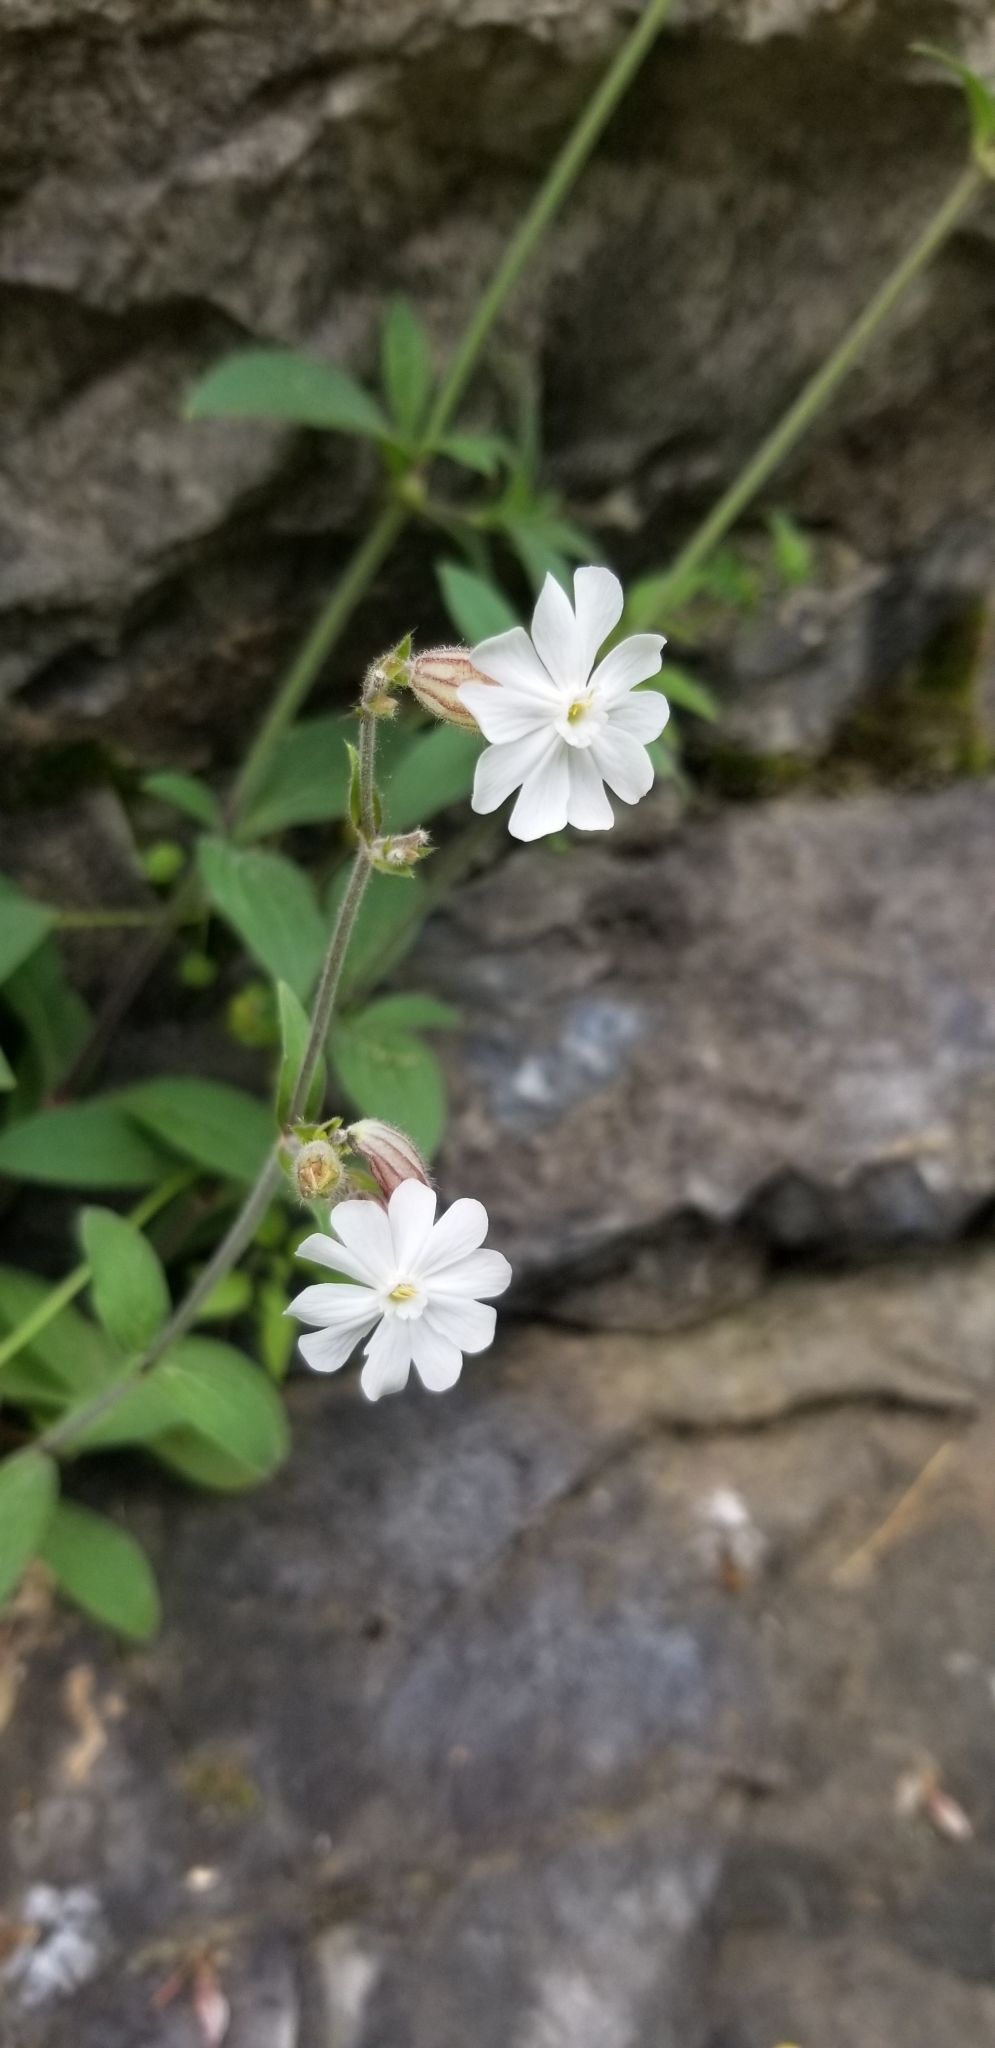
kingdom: Plantae
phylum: Tracheophyta
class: Magnoliopsida
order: Caryophyllales
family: Caryophyllaceae
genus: Silene
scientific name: Silene latifolia
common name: White campion
